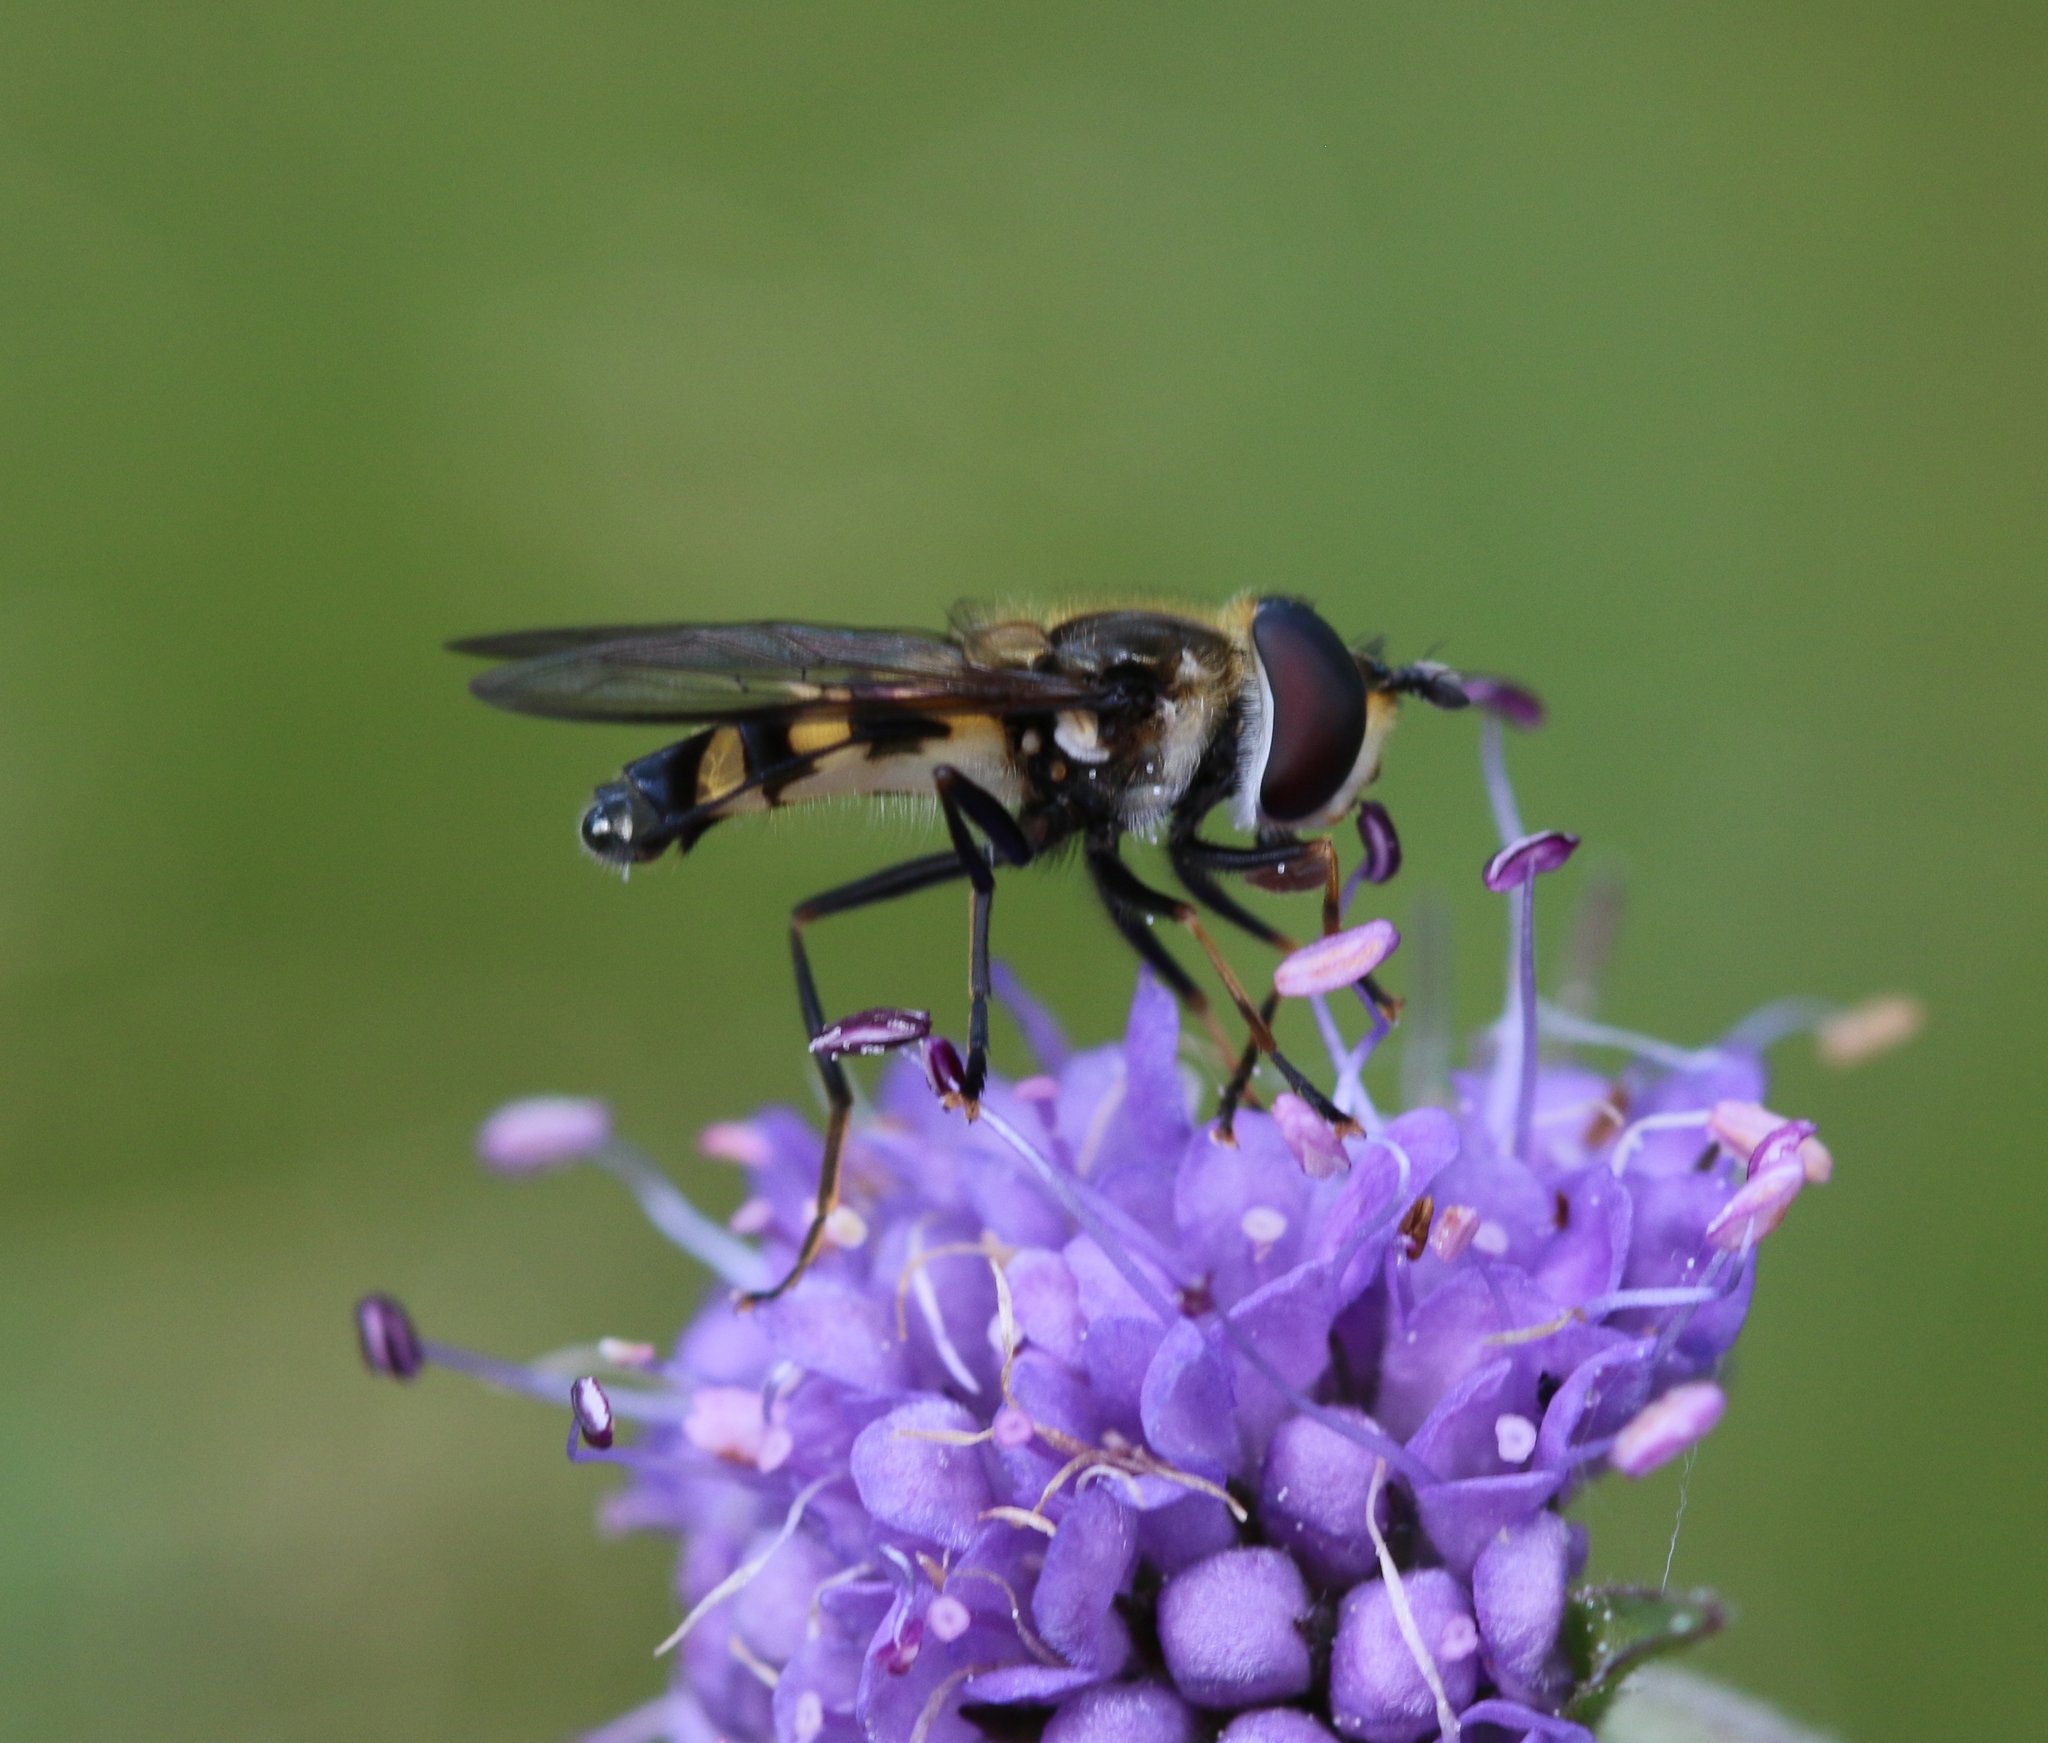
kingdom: Animalia
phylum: Arthropoda
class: Insecta
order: Diptera
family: Syrphidae
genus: Didea
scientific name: Didea fasciata
